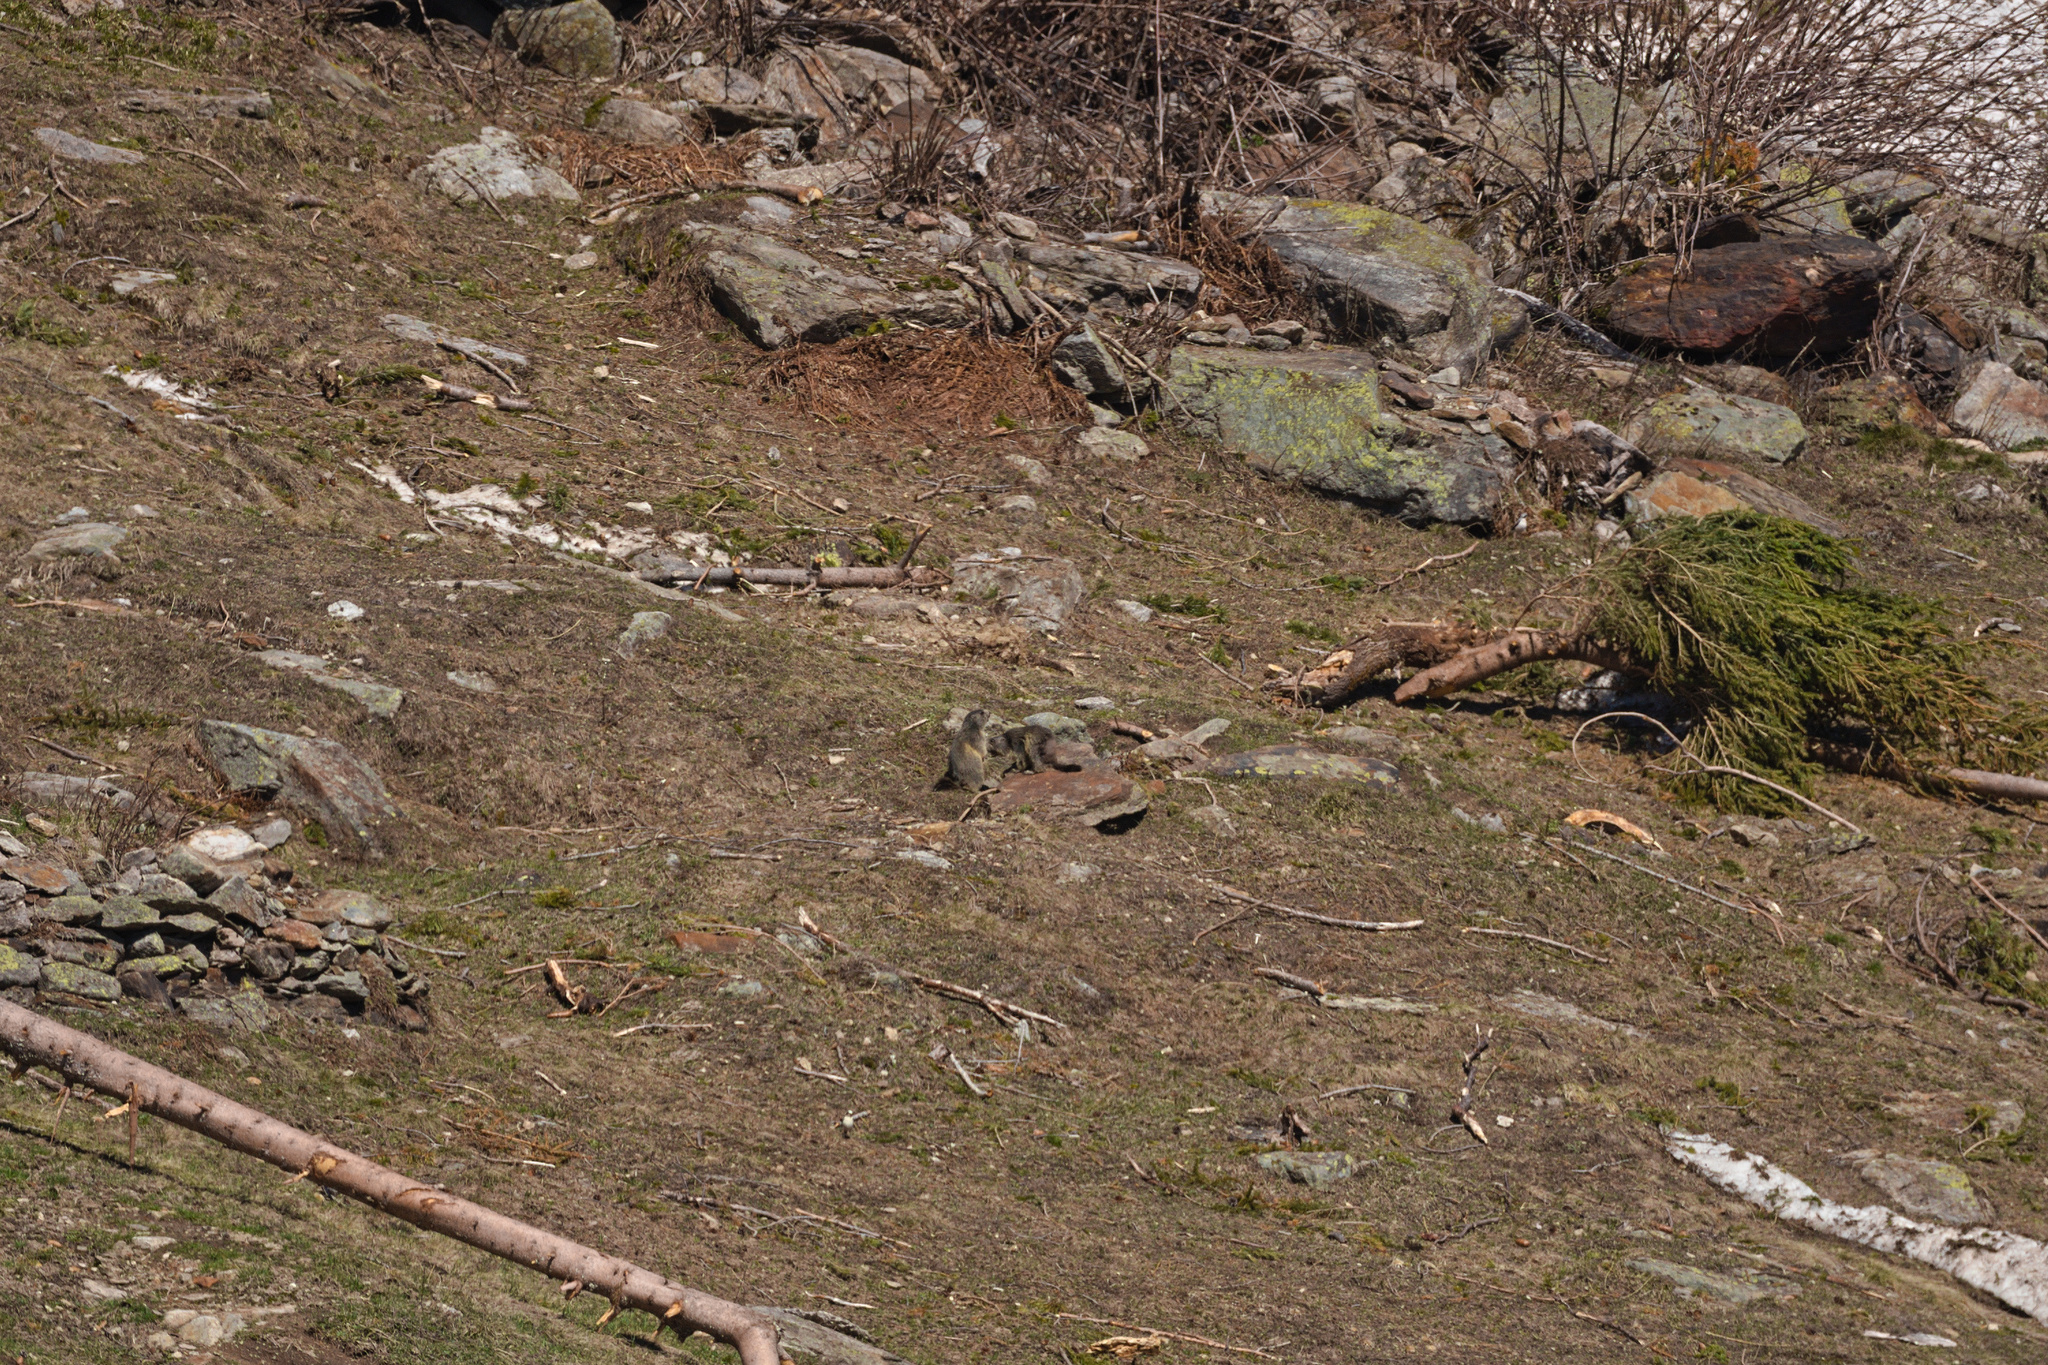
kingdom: Animalia
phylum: Chordata
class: Mammalia
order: Rodentia
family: Sciuridae
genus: Marmota
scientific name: Marmota marmota
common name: Alpine marmot
